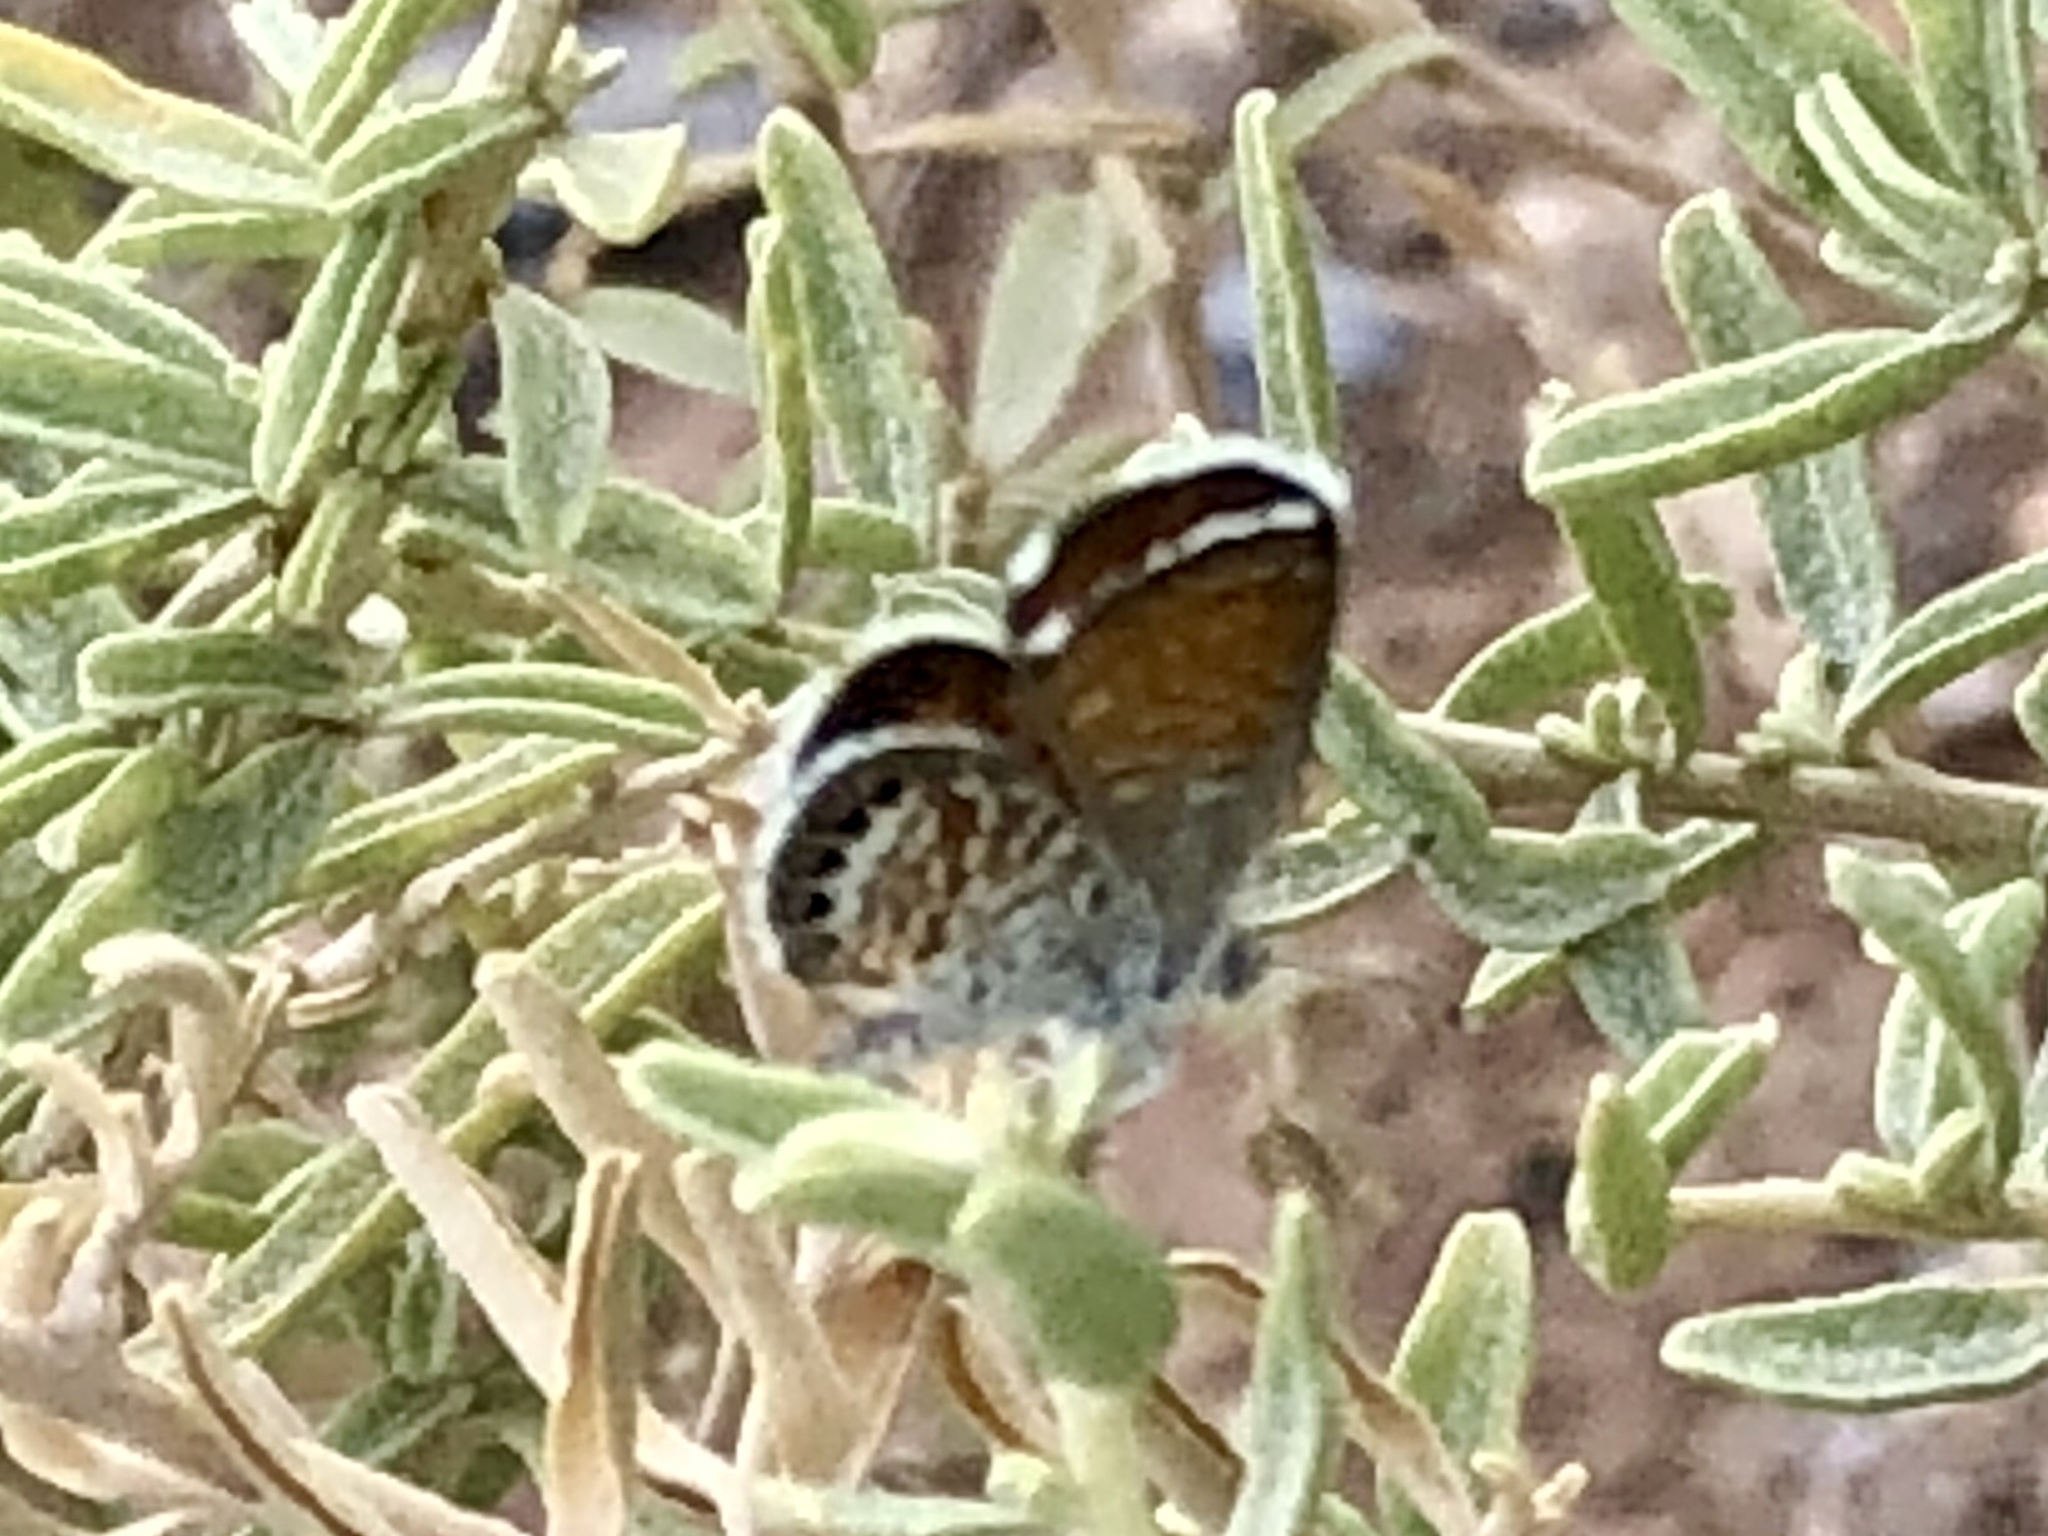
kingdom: Animalia
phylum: Arthropoda
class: Insecta
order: Lepidoptera
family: Lycaenidae
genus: Brephidium
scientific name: Brephidium exilis
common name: Pygmy blue
